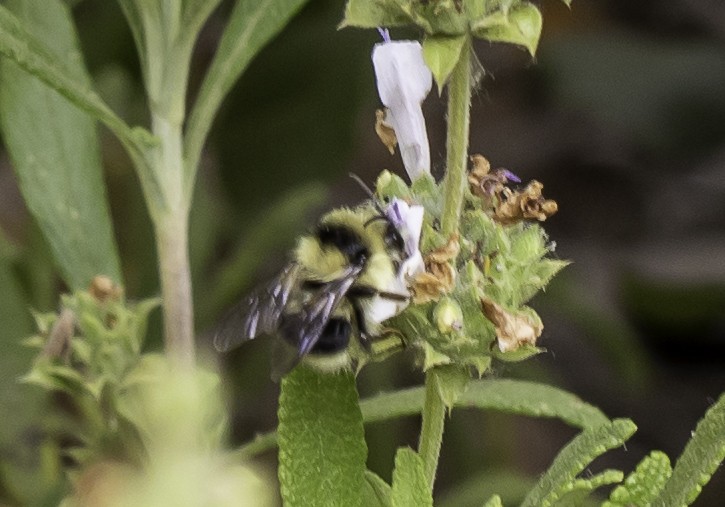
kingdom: Animalia
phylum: Arthropoda
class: Insecta
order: Hymenoptera
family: Apidae
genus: Bombus
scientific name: Bombus melanopygus
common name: Black tail bumble bee
